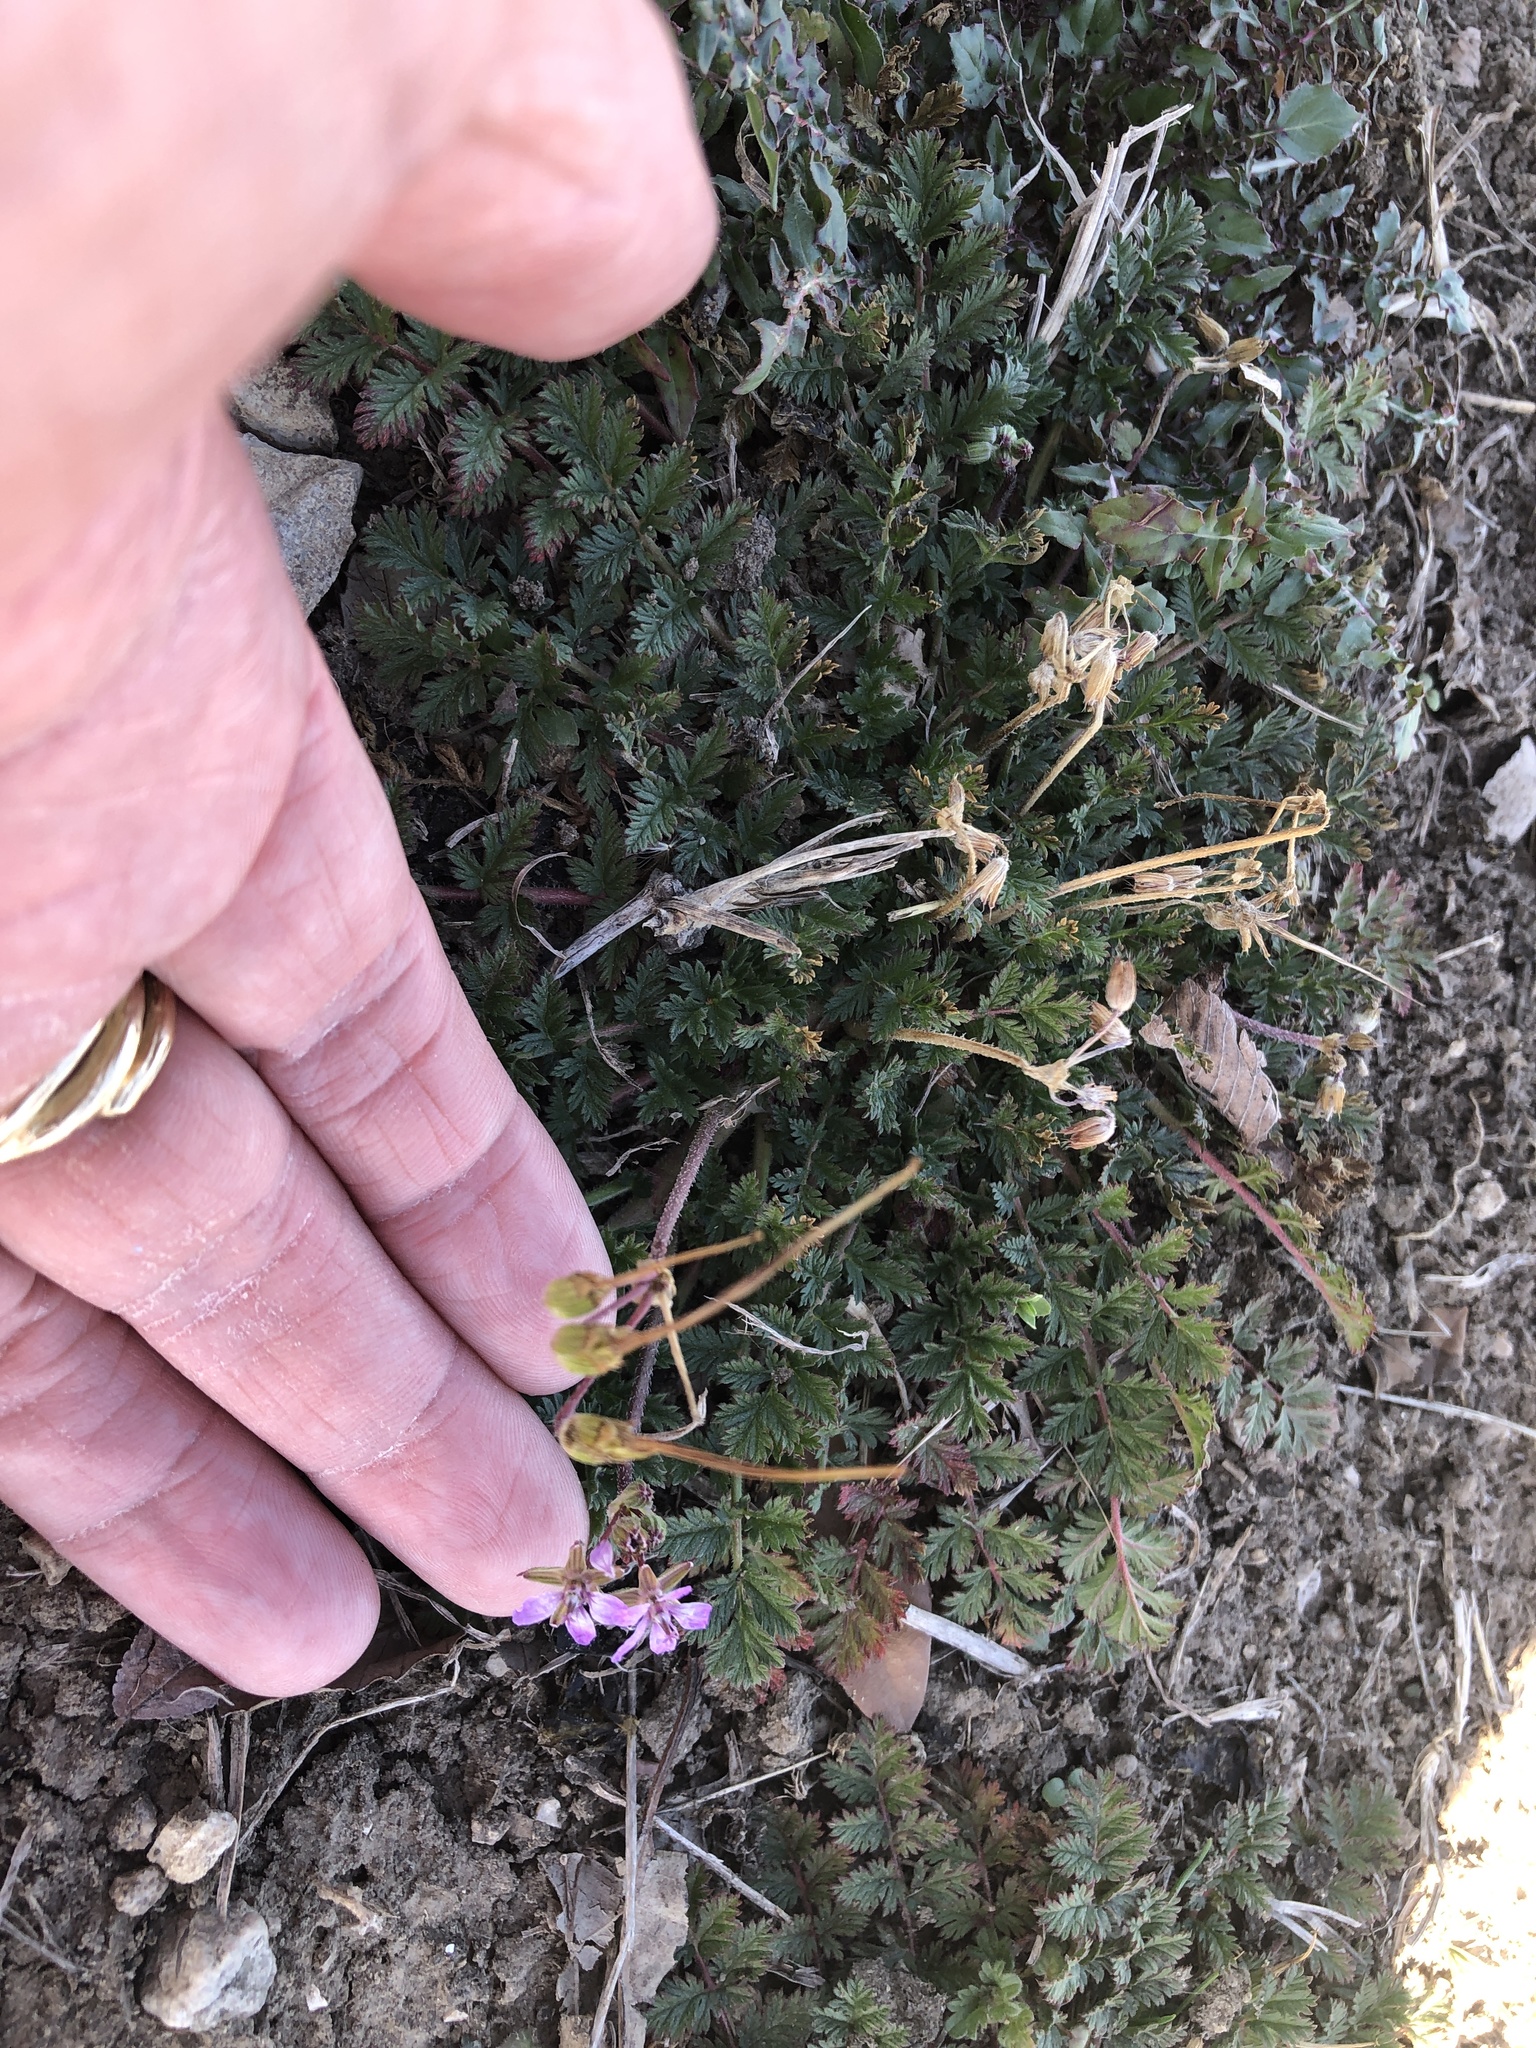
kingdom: Plantae
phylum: Tracheophyta
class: Magnoliopsida
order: Geraniales
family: Geraniaceae
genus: Erodium
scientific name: Erodium cicutarium
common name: Common stork's-bill
